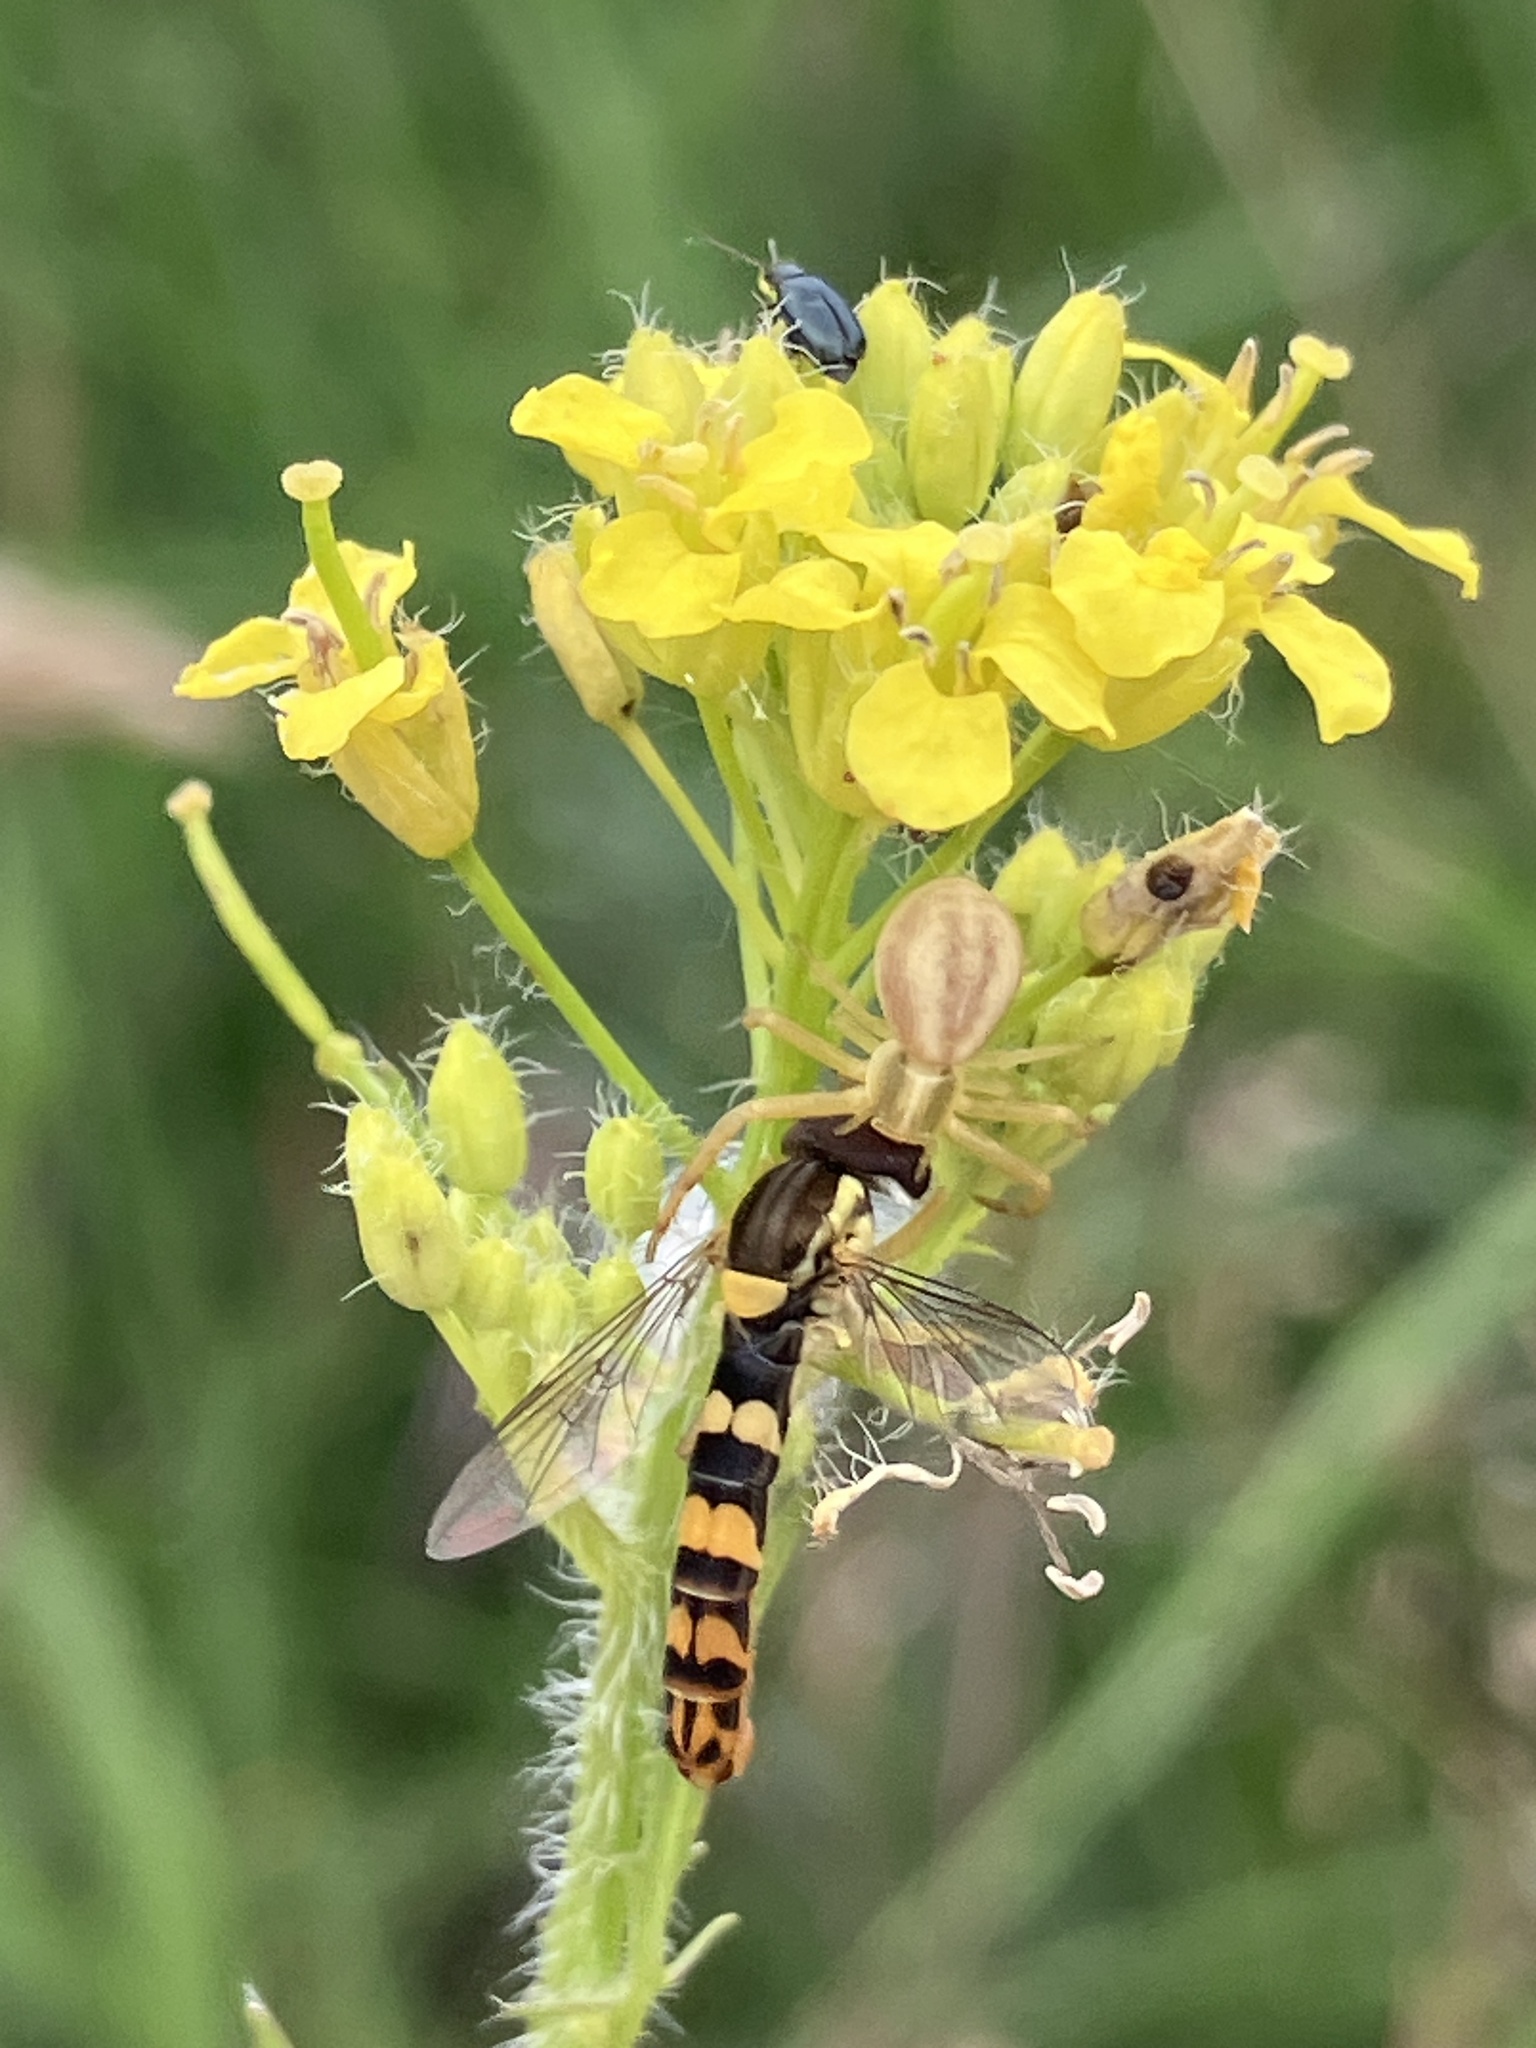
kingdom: Animalia
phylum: Arthropoda
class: Insecta
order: Diptera
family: Syrphidae
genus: Sphaerophoria
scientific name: Sphaerophoria scripta
